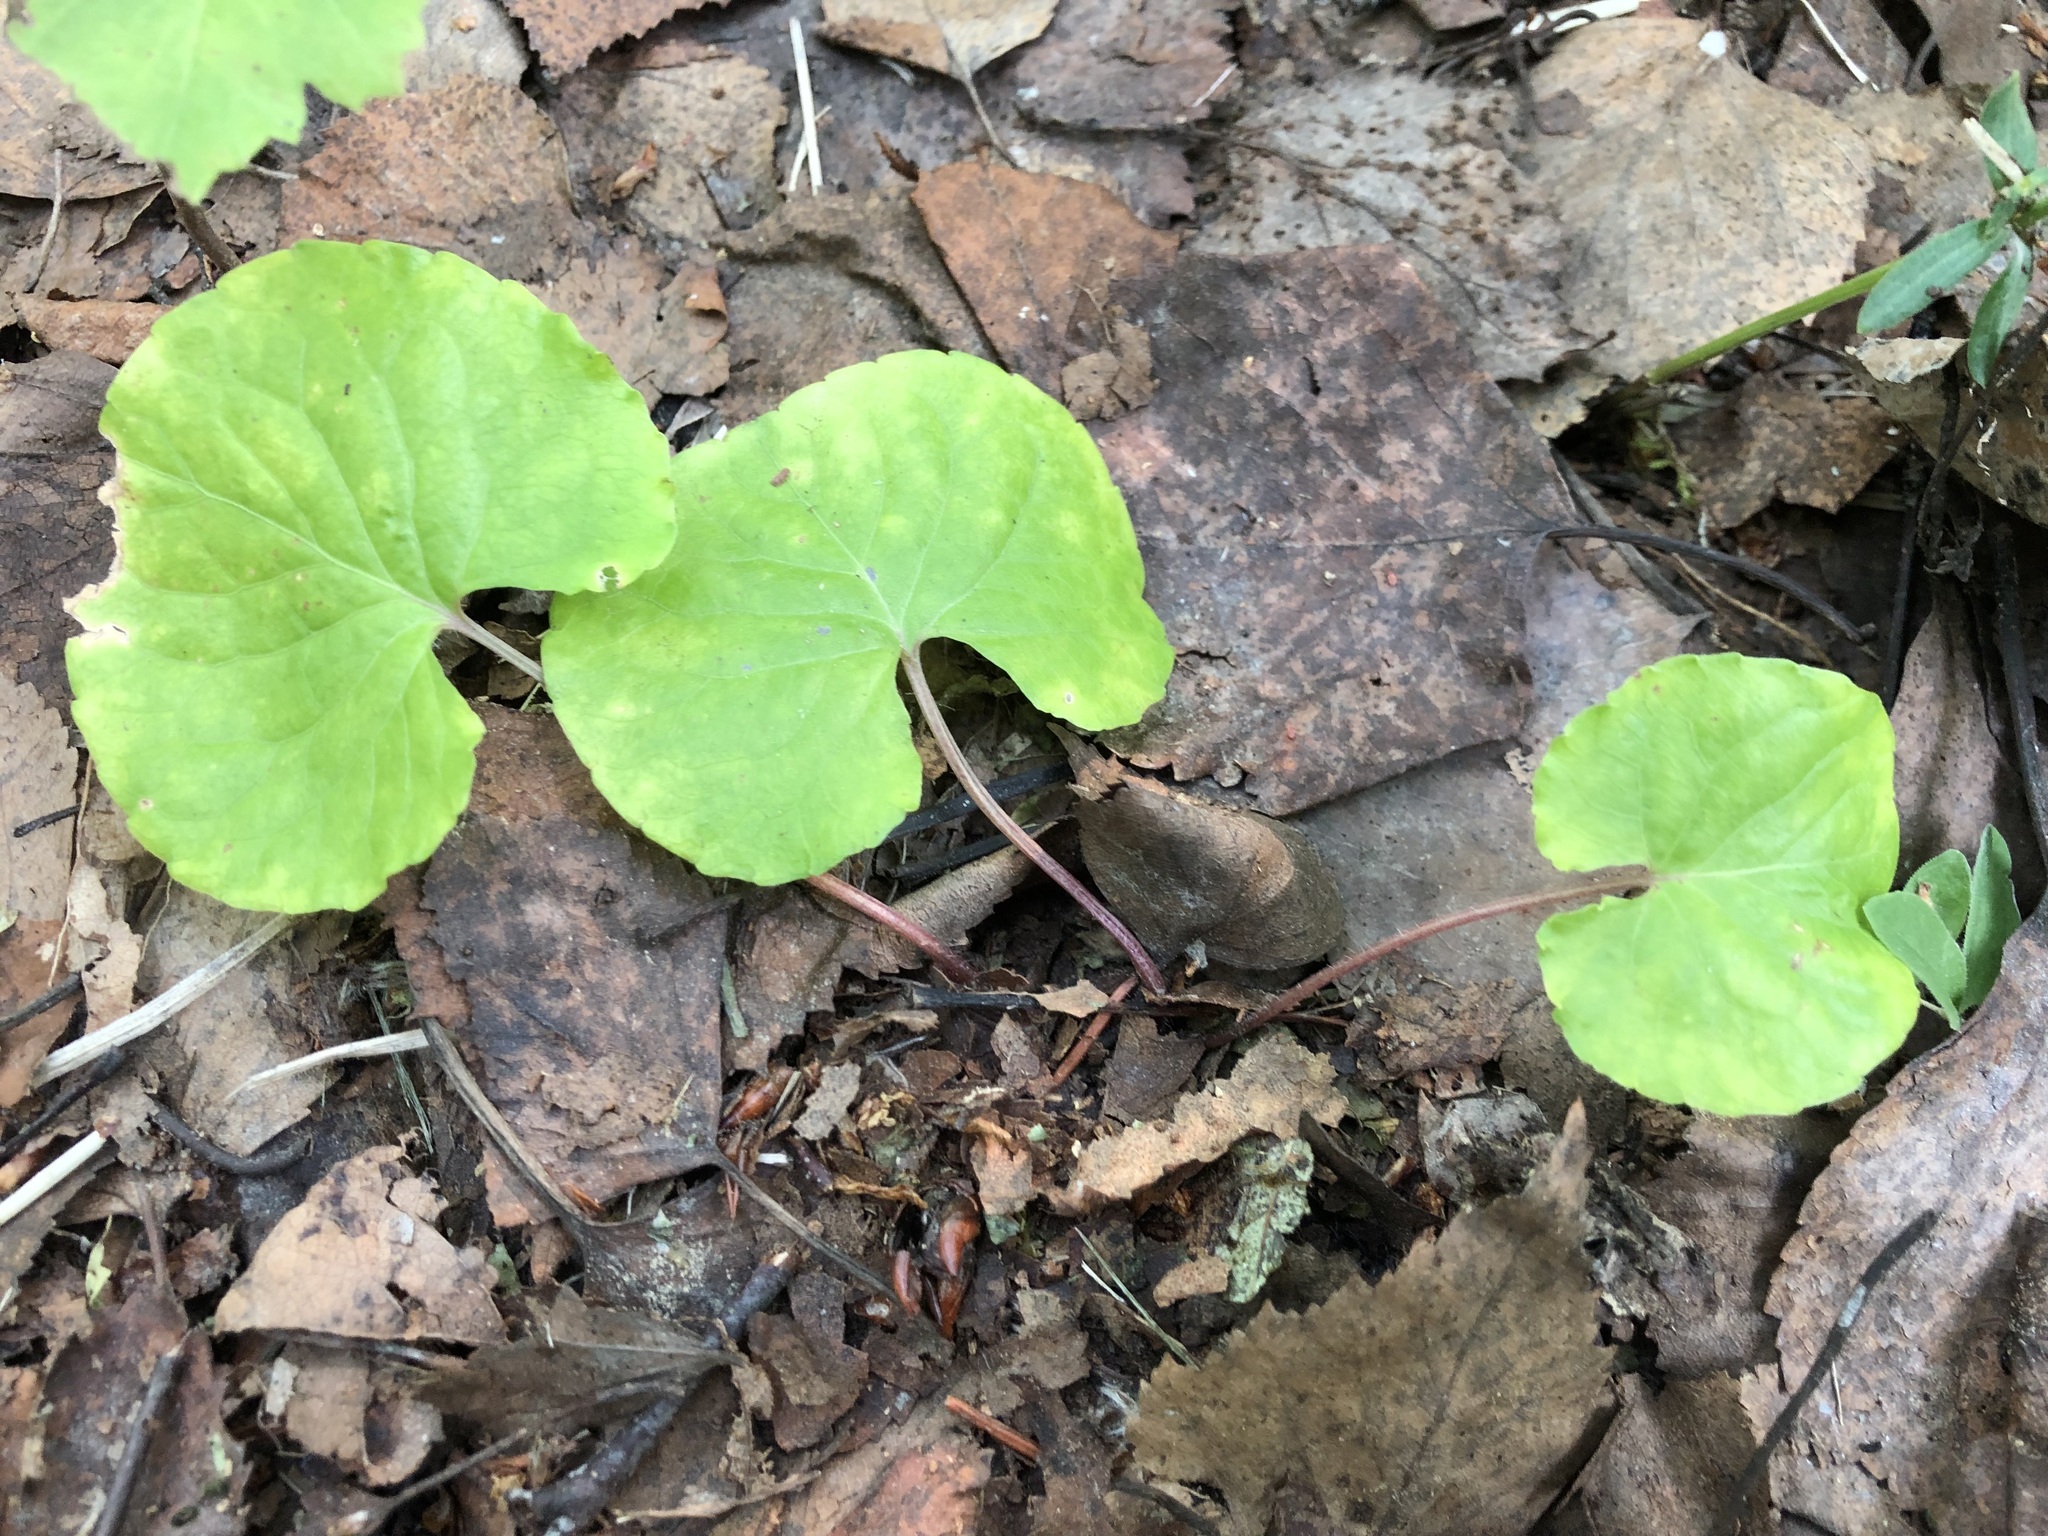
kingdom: Plantae
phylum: Tracheophyta
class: Magnoliopsida
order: Malpighiales
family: Violaceae
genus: Viola
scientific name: Viola renifolia
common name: Kidney-leaf violet
